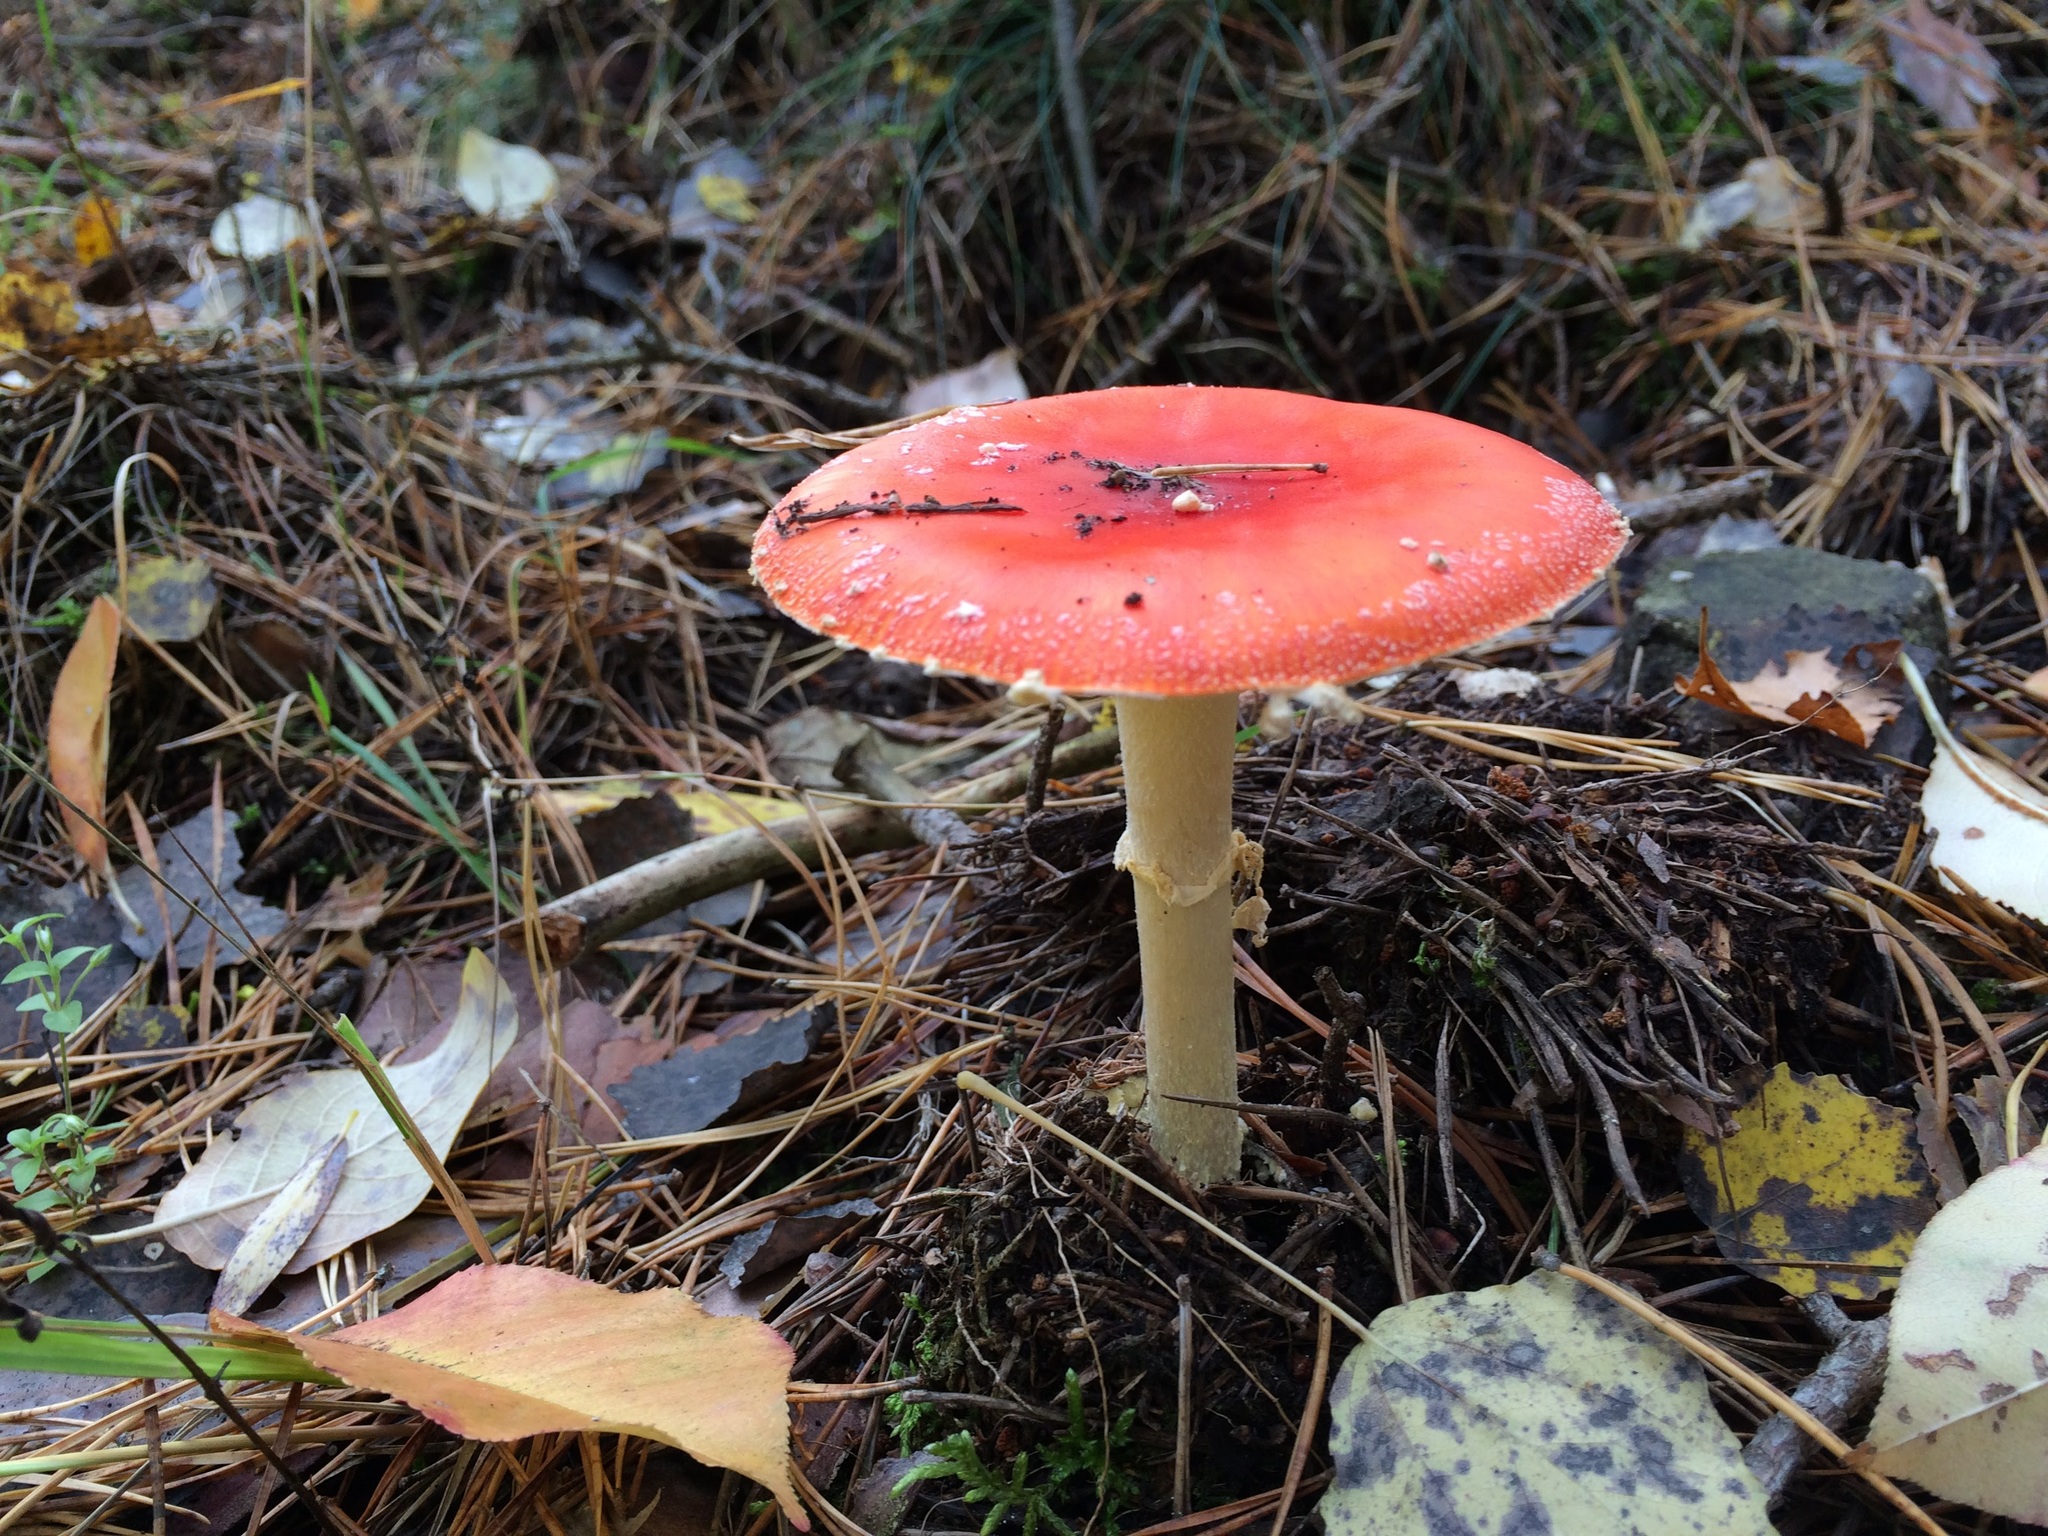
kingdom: Fungi
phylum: Basidiomycota
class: Agaricomycetes
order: Agaricales
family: Amanitaceae
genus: Amanita
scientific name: Amanita muscaria
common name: Fly agaric
